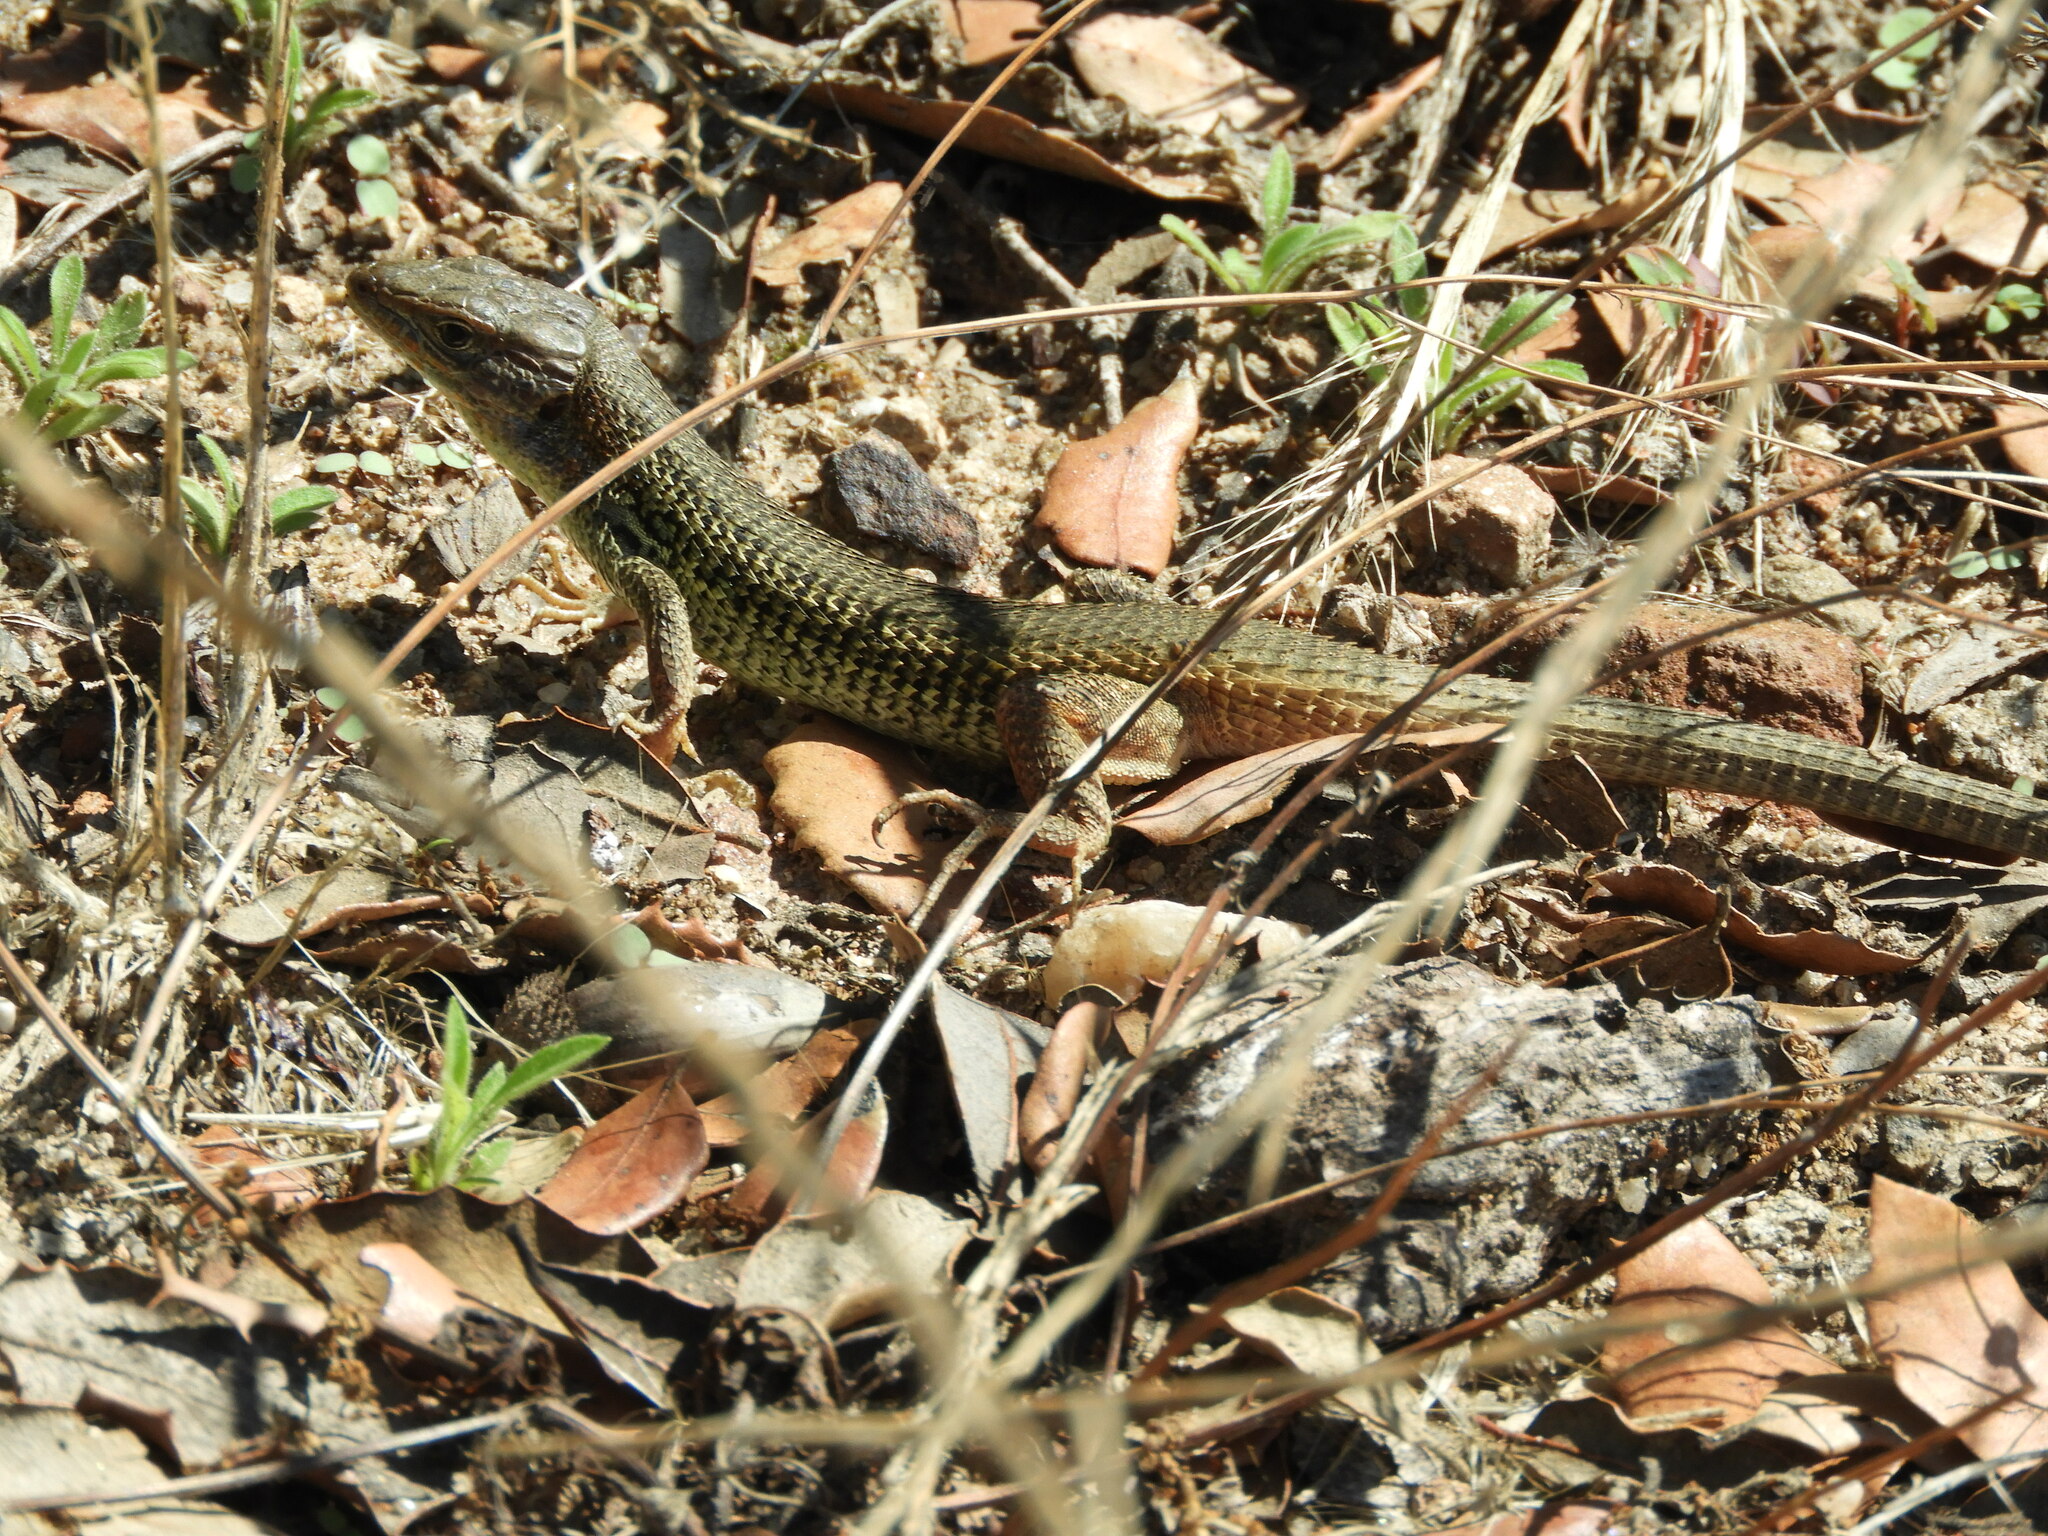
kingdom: Animalia
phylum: Chordata
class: Squamata
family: Lacertidae
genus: Psammodromus
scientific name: Psammodromus algirus
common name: Algerian psammodromus
